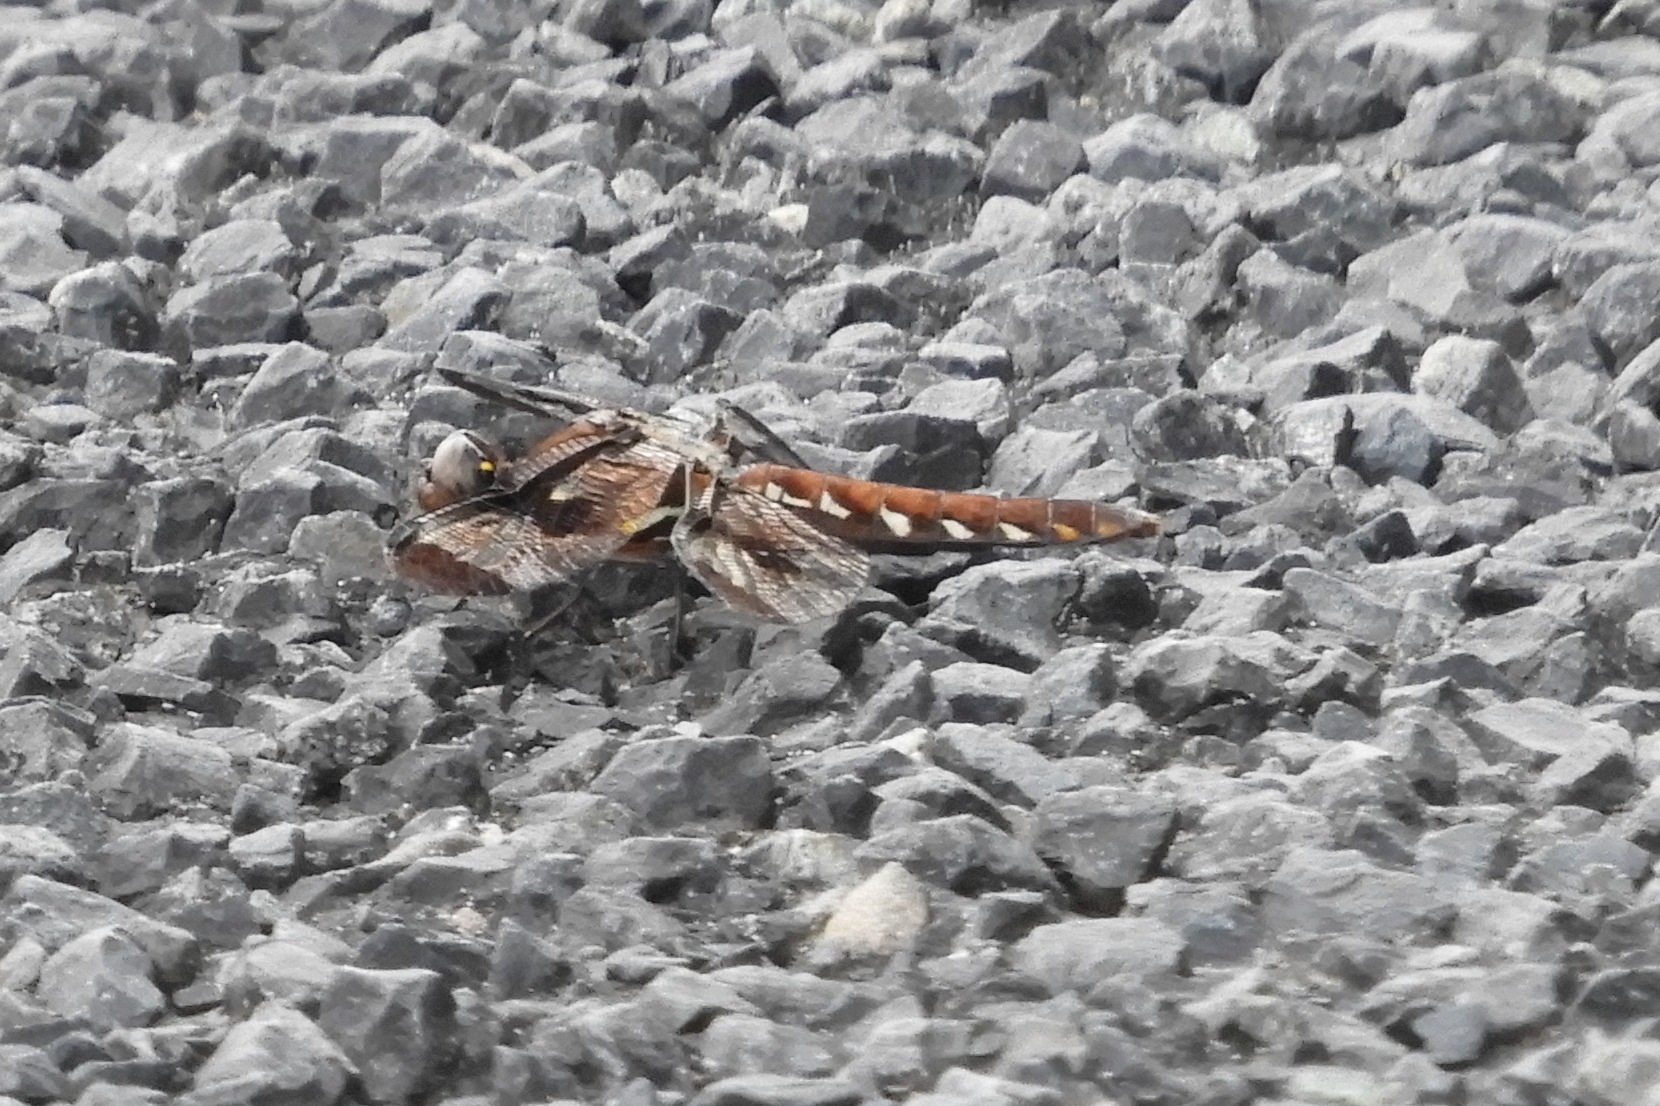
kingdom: Animalia
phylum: Arthropoda
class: Insecta
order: Odonata
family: Libellulidae
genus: Plathemis
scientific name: Plathemis lydia
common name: Common whitetail
